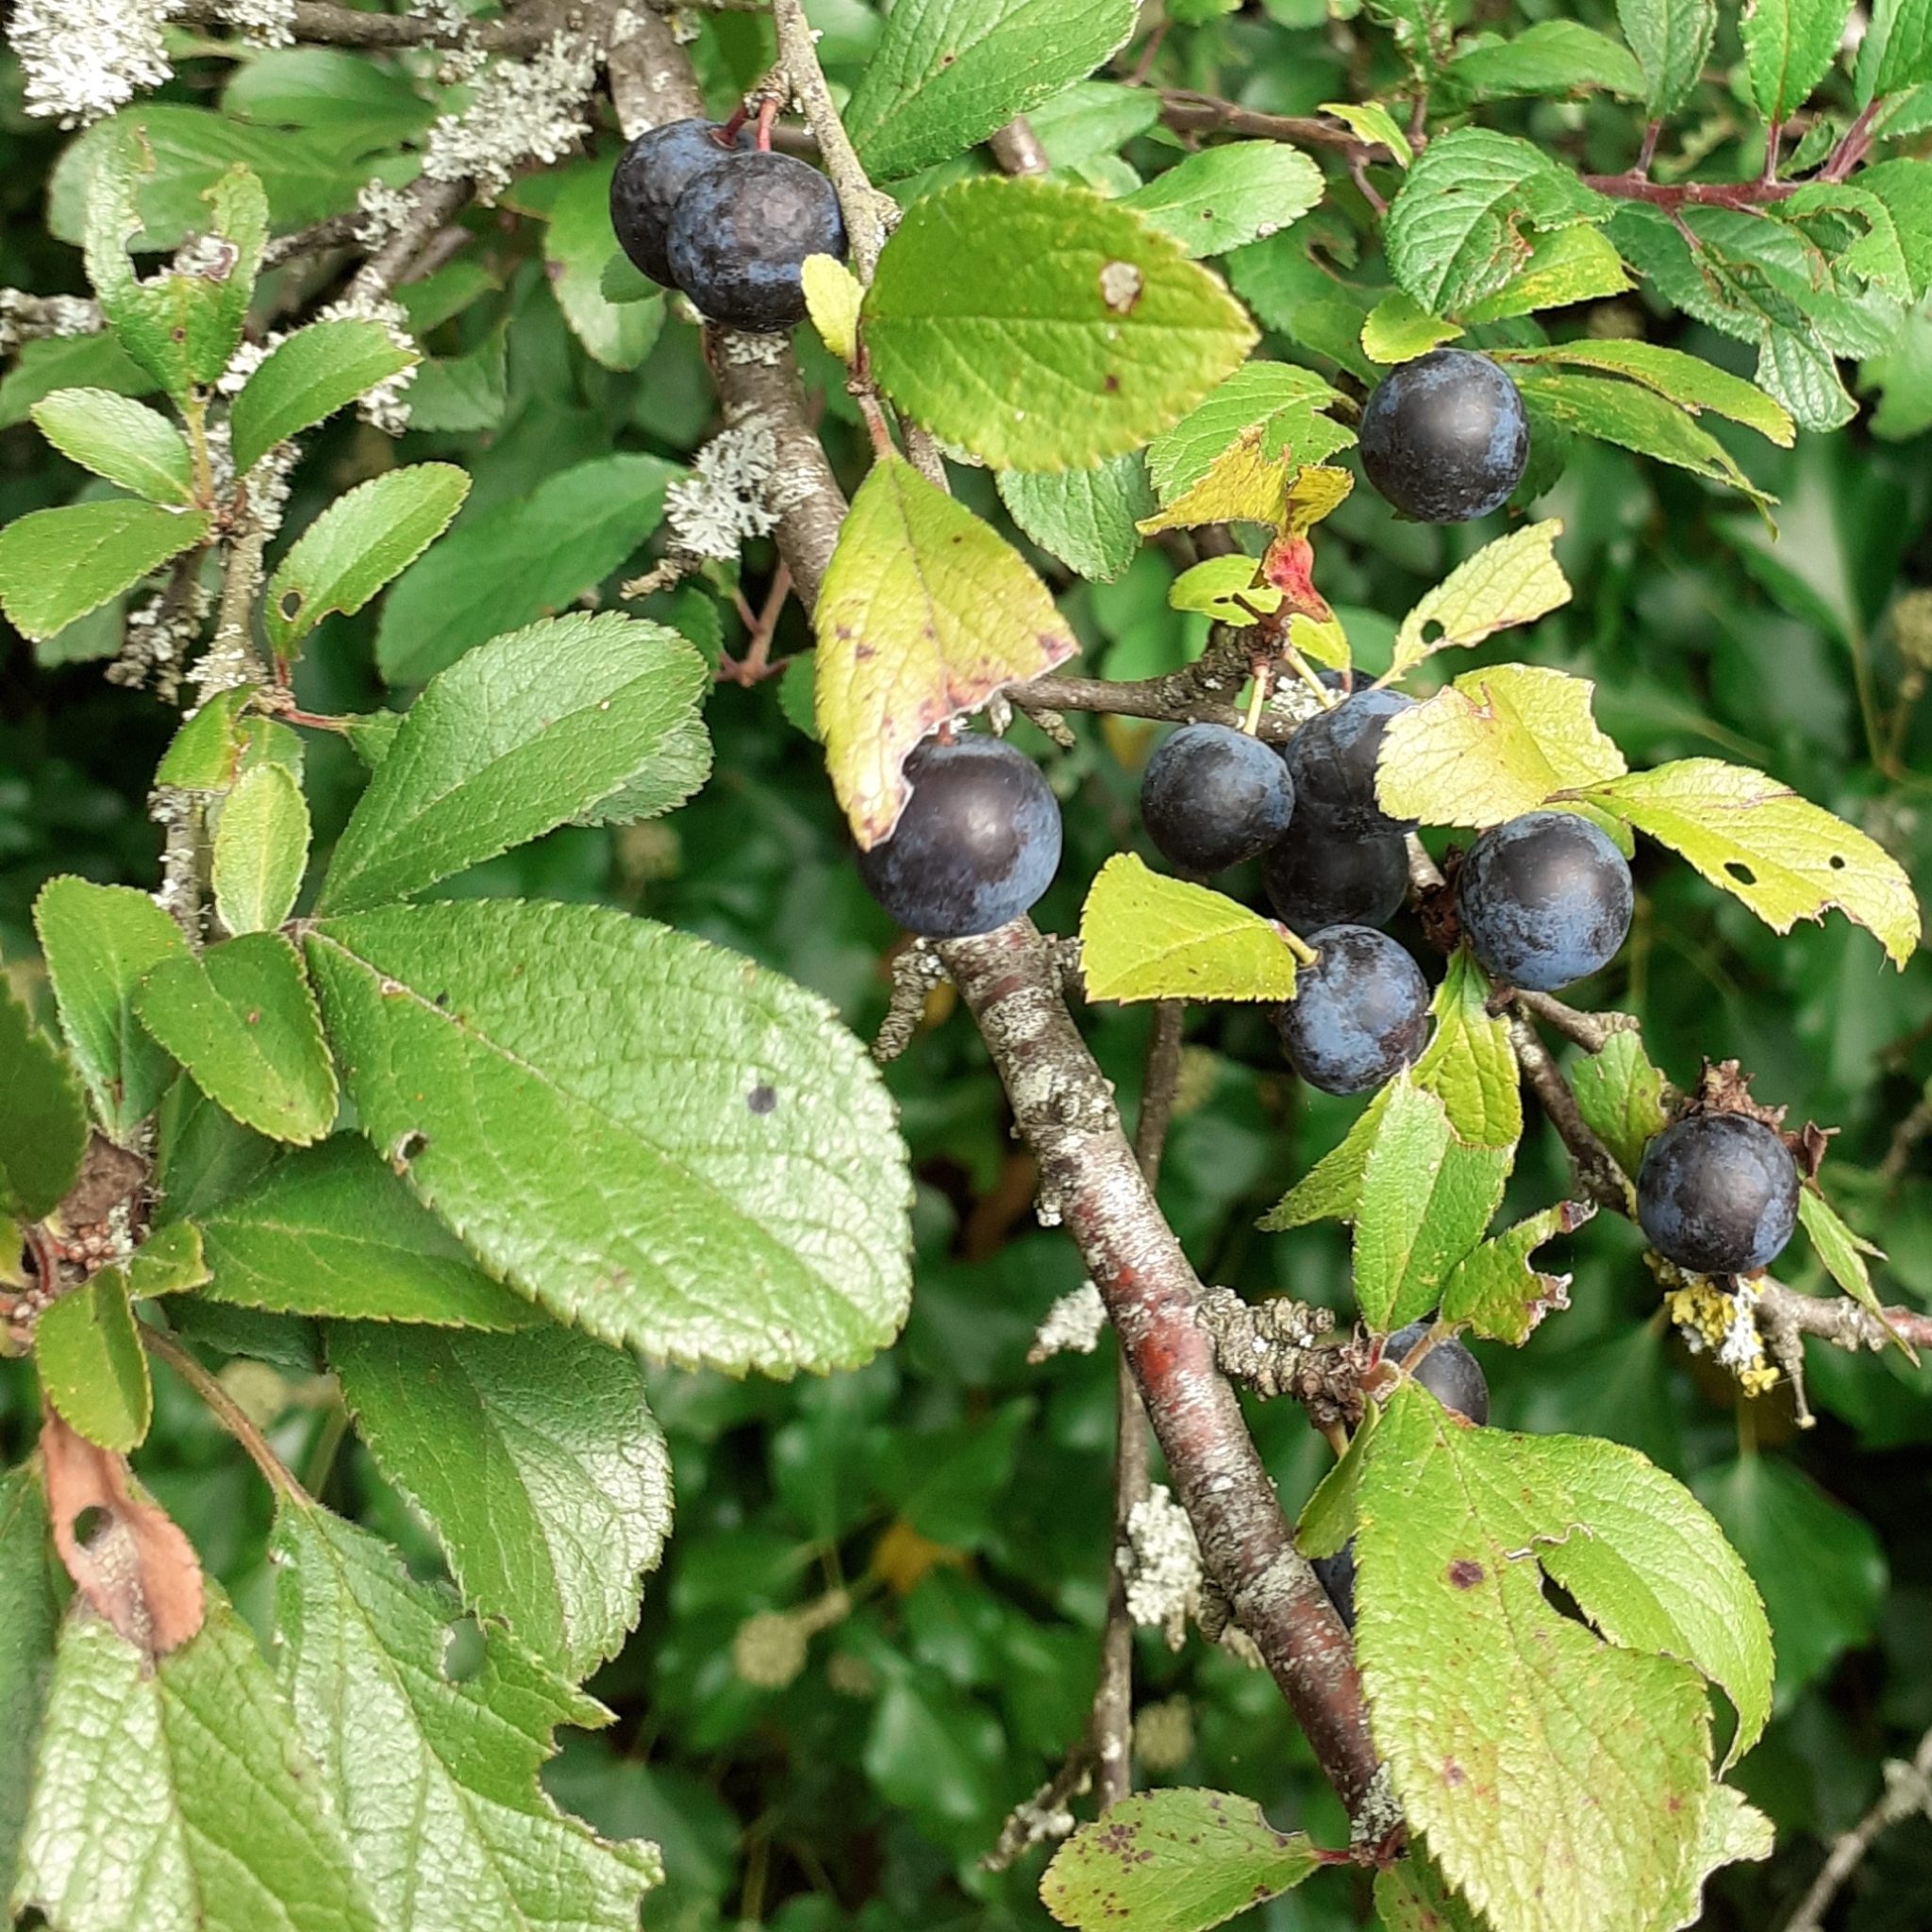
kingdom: Plantae
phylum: Tracheophyta
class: Magnoliopsida
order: Rosales
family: Rosaceae
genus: Prunus
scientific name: Prunus spinosa
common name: Blackthorn
